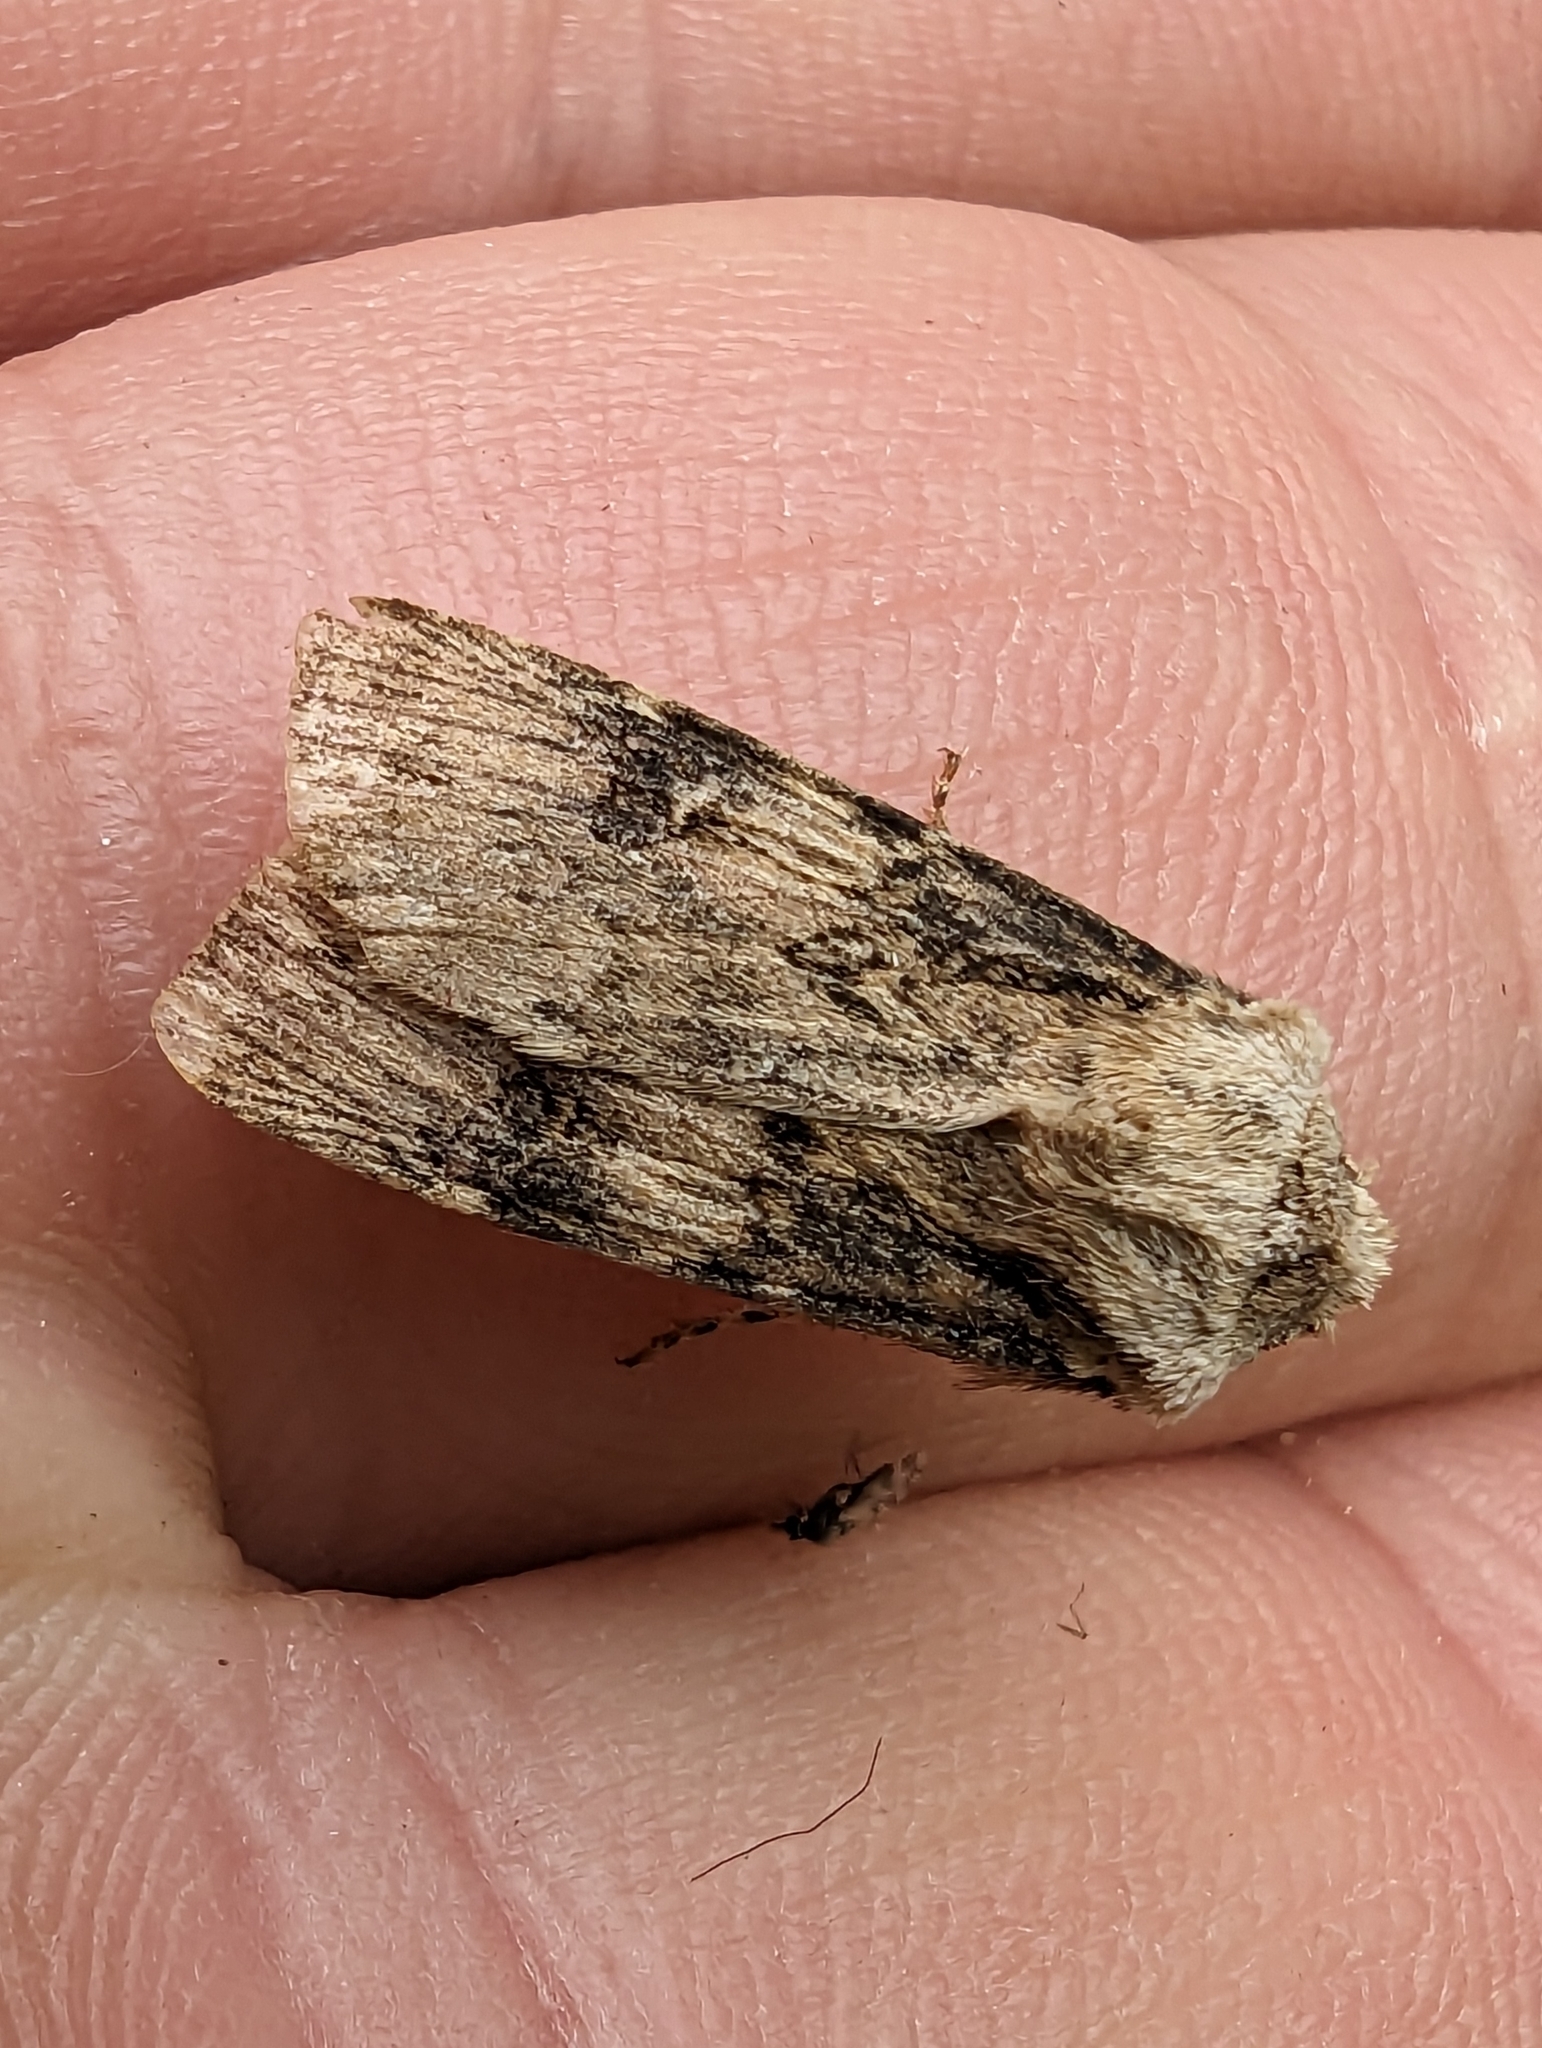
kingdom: Animalia
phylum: Arthropoda
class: Insecta
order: Lepidoptera
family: Noctuidae
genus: Agrotis
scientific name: Agrotis puta
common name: Shuttle-shaped dart
